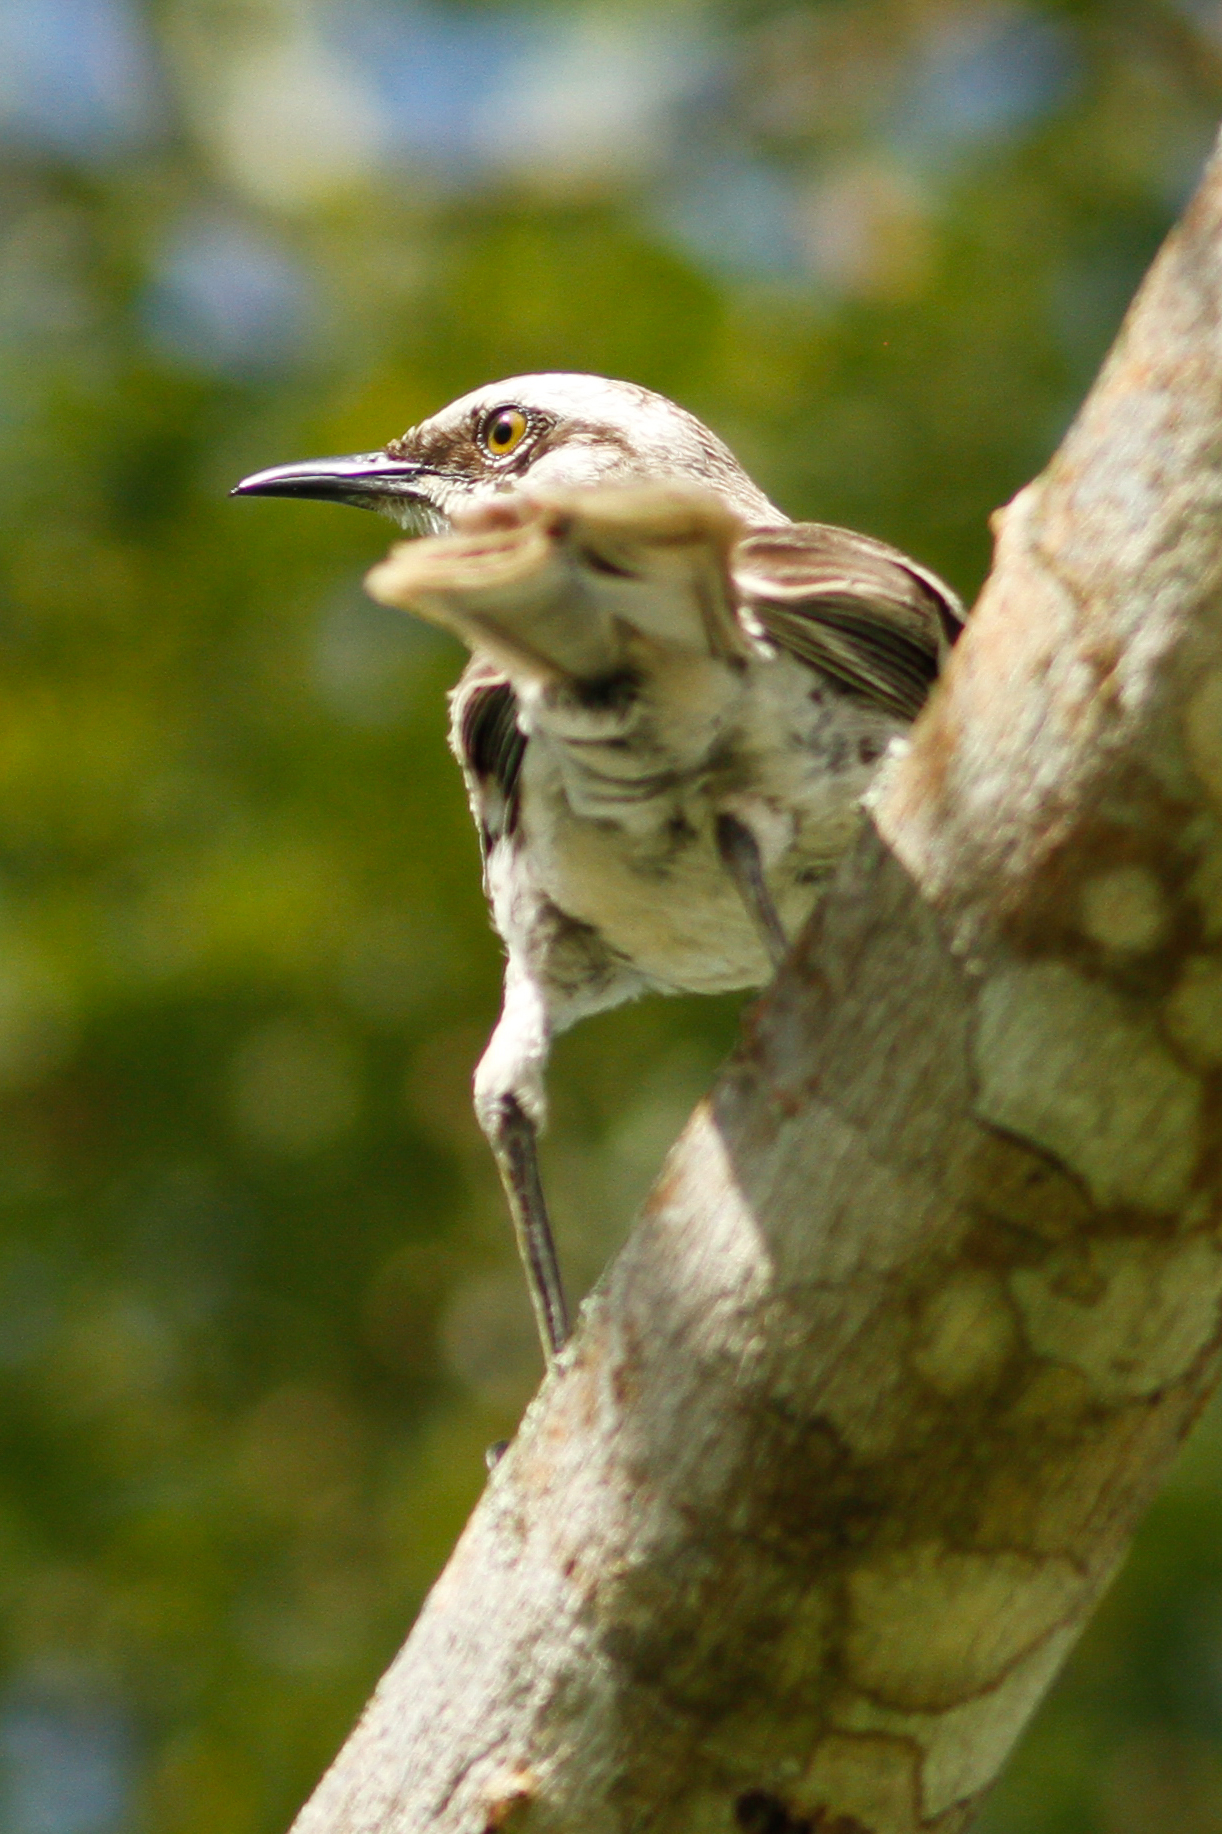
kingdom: Animalia
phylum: Chordata
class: Aves
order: Passeriformes
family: Mimidae
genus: Mimus
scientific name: Mimus longicaudatus
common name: Long-tailed mockingbird
